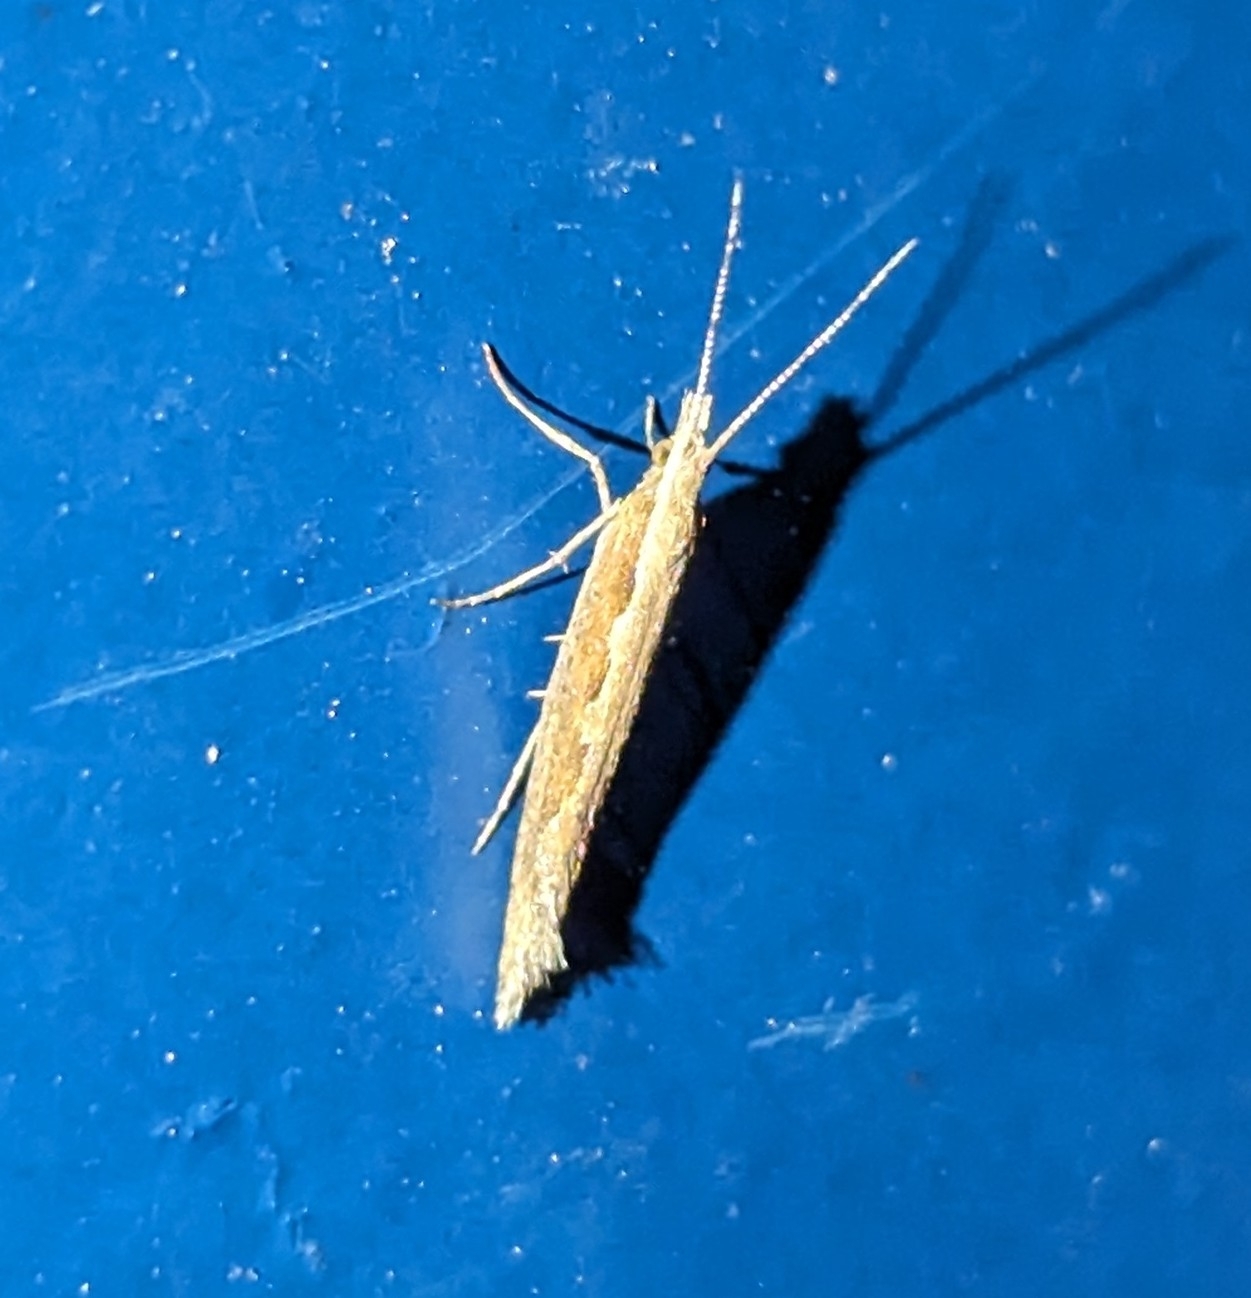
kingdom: Animalia
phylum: Arthropoda
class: Insecta
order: Lepidoptera
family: Plutellidae
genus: Plutella
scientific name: Plutella xylostella
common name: Diamond-back moth
